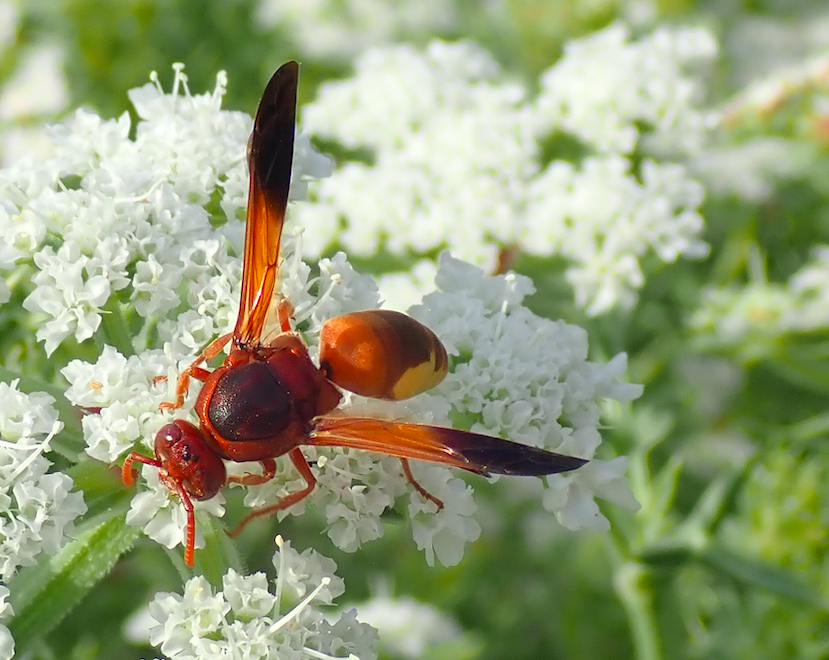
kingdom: Animalia
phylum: Arthropoda
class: Insecta
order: Hymenoptera
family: Eumenidae
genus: Rhynchium
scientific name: Rhynchium oculatum
